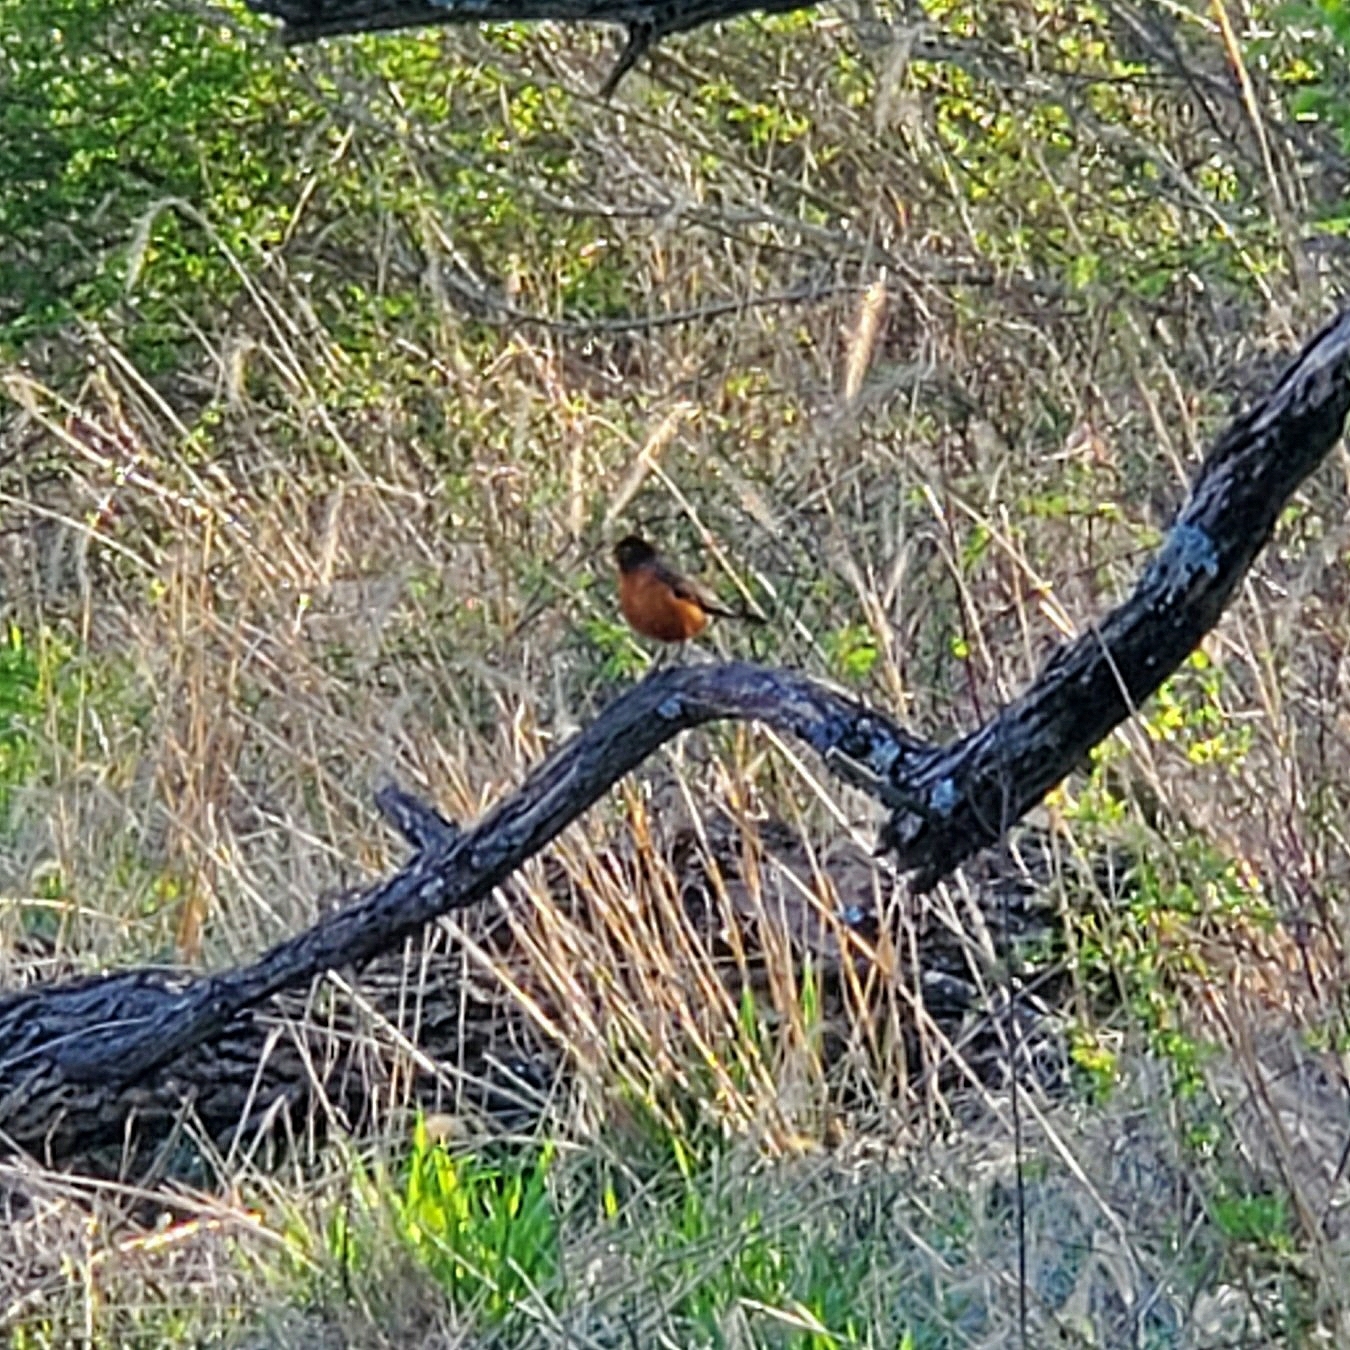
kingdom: Animalia
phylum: Chordata
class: Aves
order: Passeriformes
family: Turdidae
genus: Turdus
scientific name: Turdus migratorius
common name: American robin
